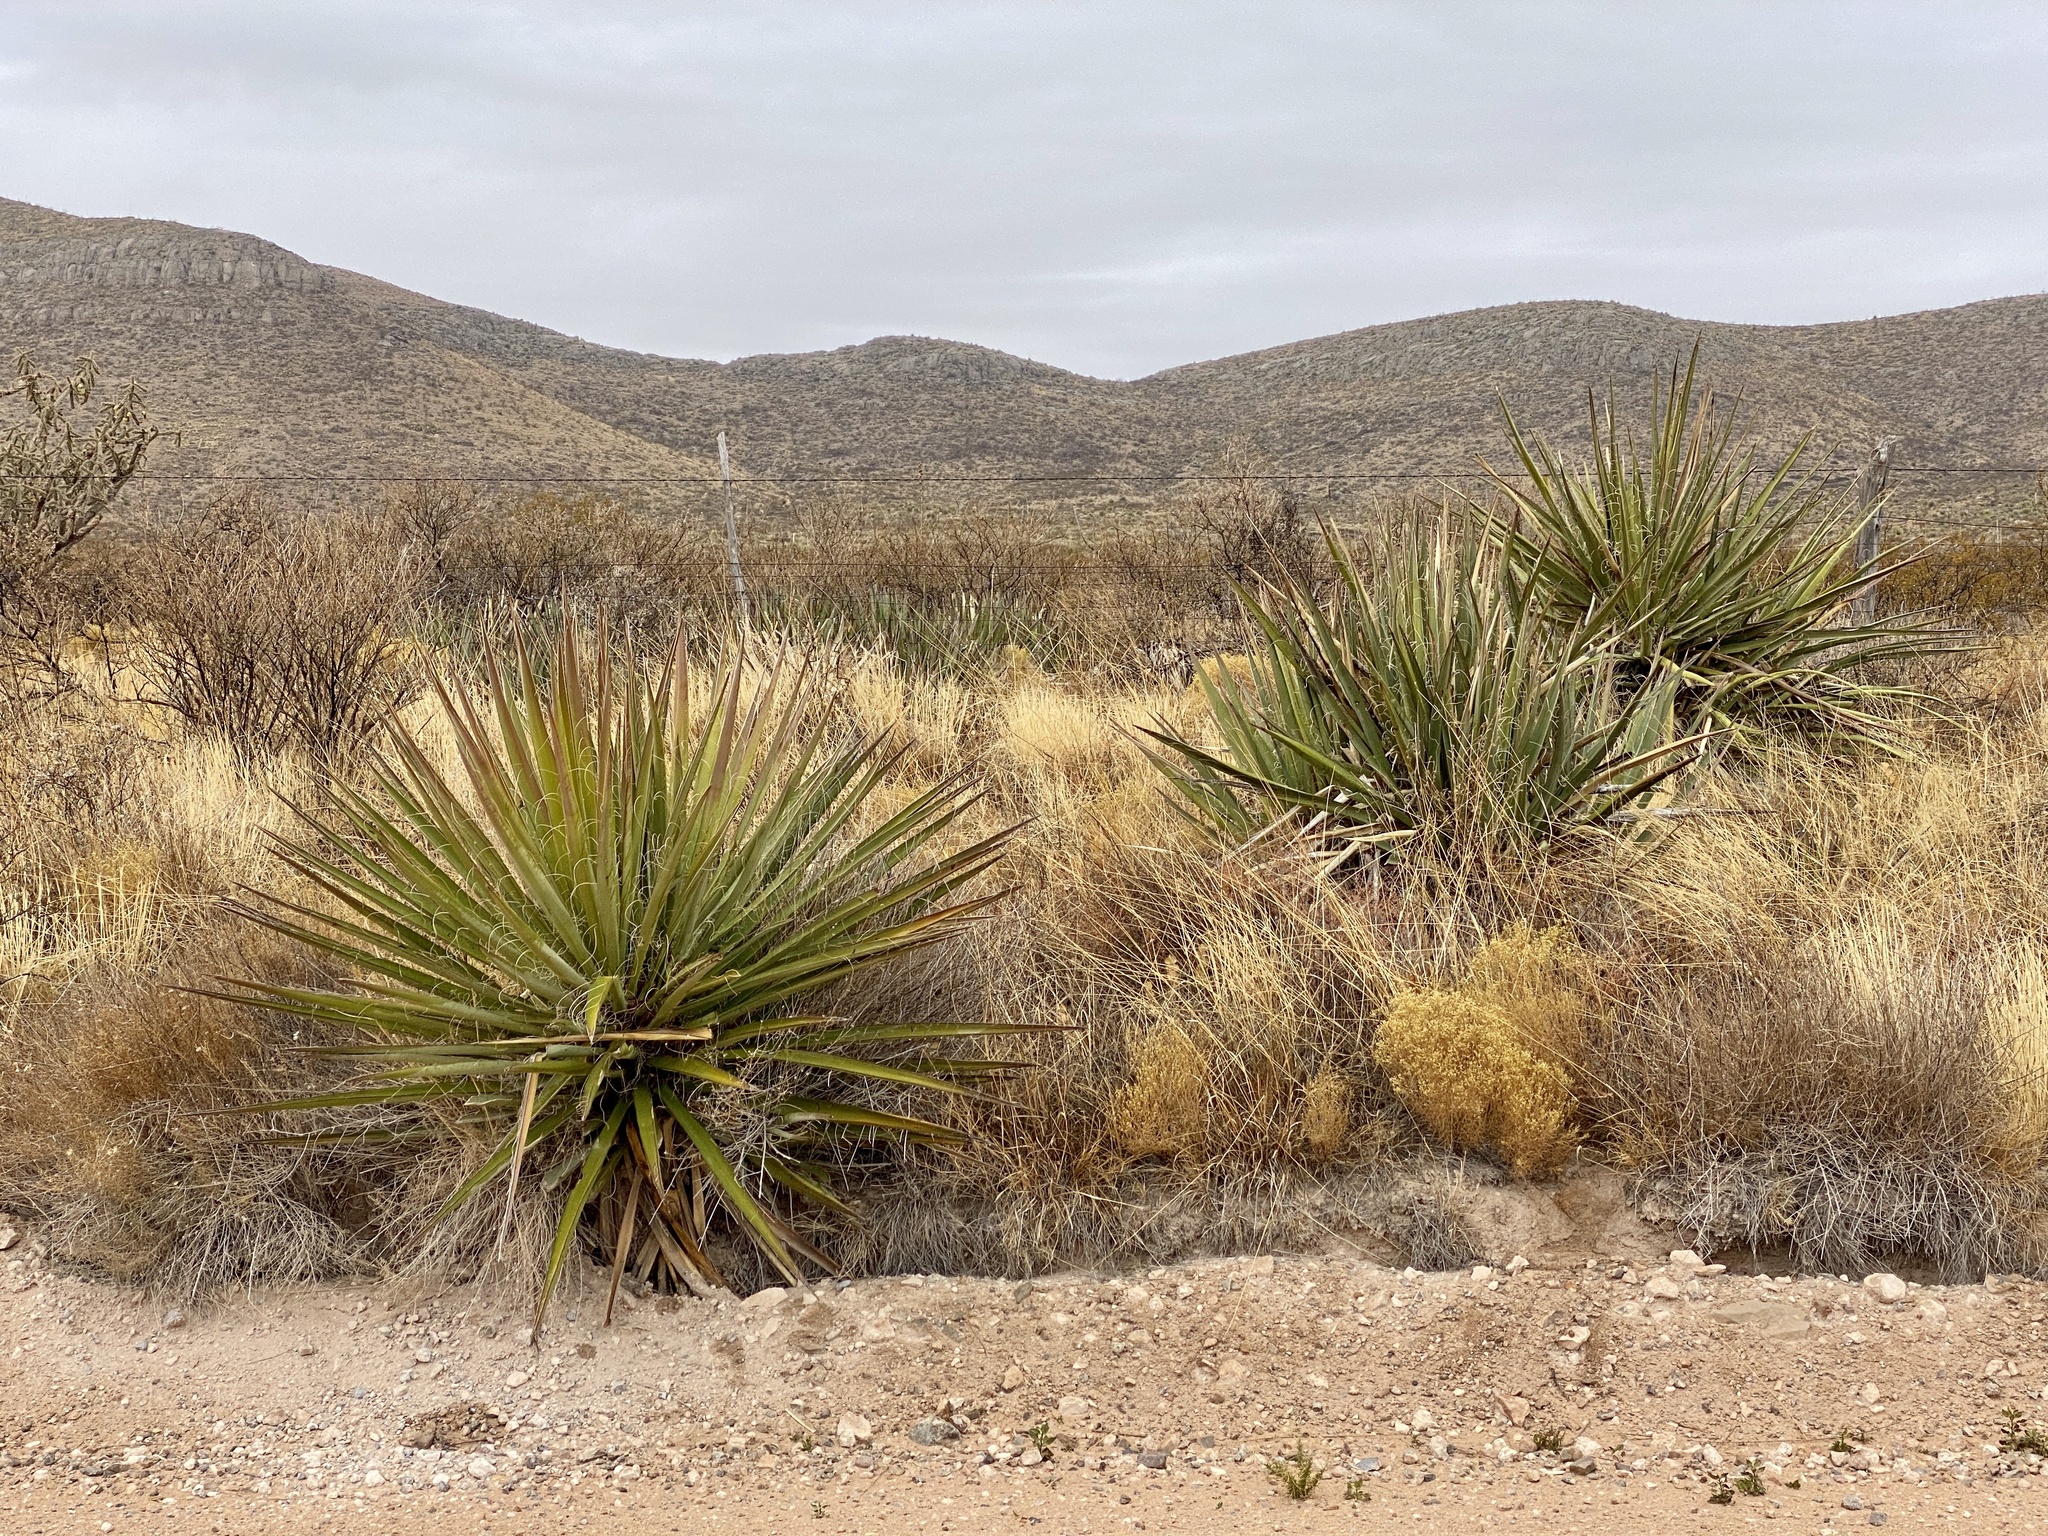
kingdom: Plantae
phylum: Tracheophyta
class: Liliopsida
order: Asparagales
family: Asparagaceae
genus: Yucca
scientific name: Yucca baccata
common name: Banana yucca
